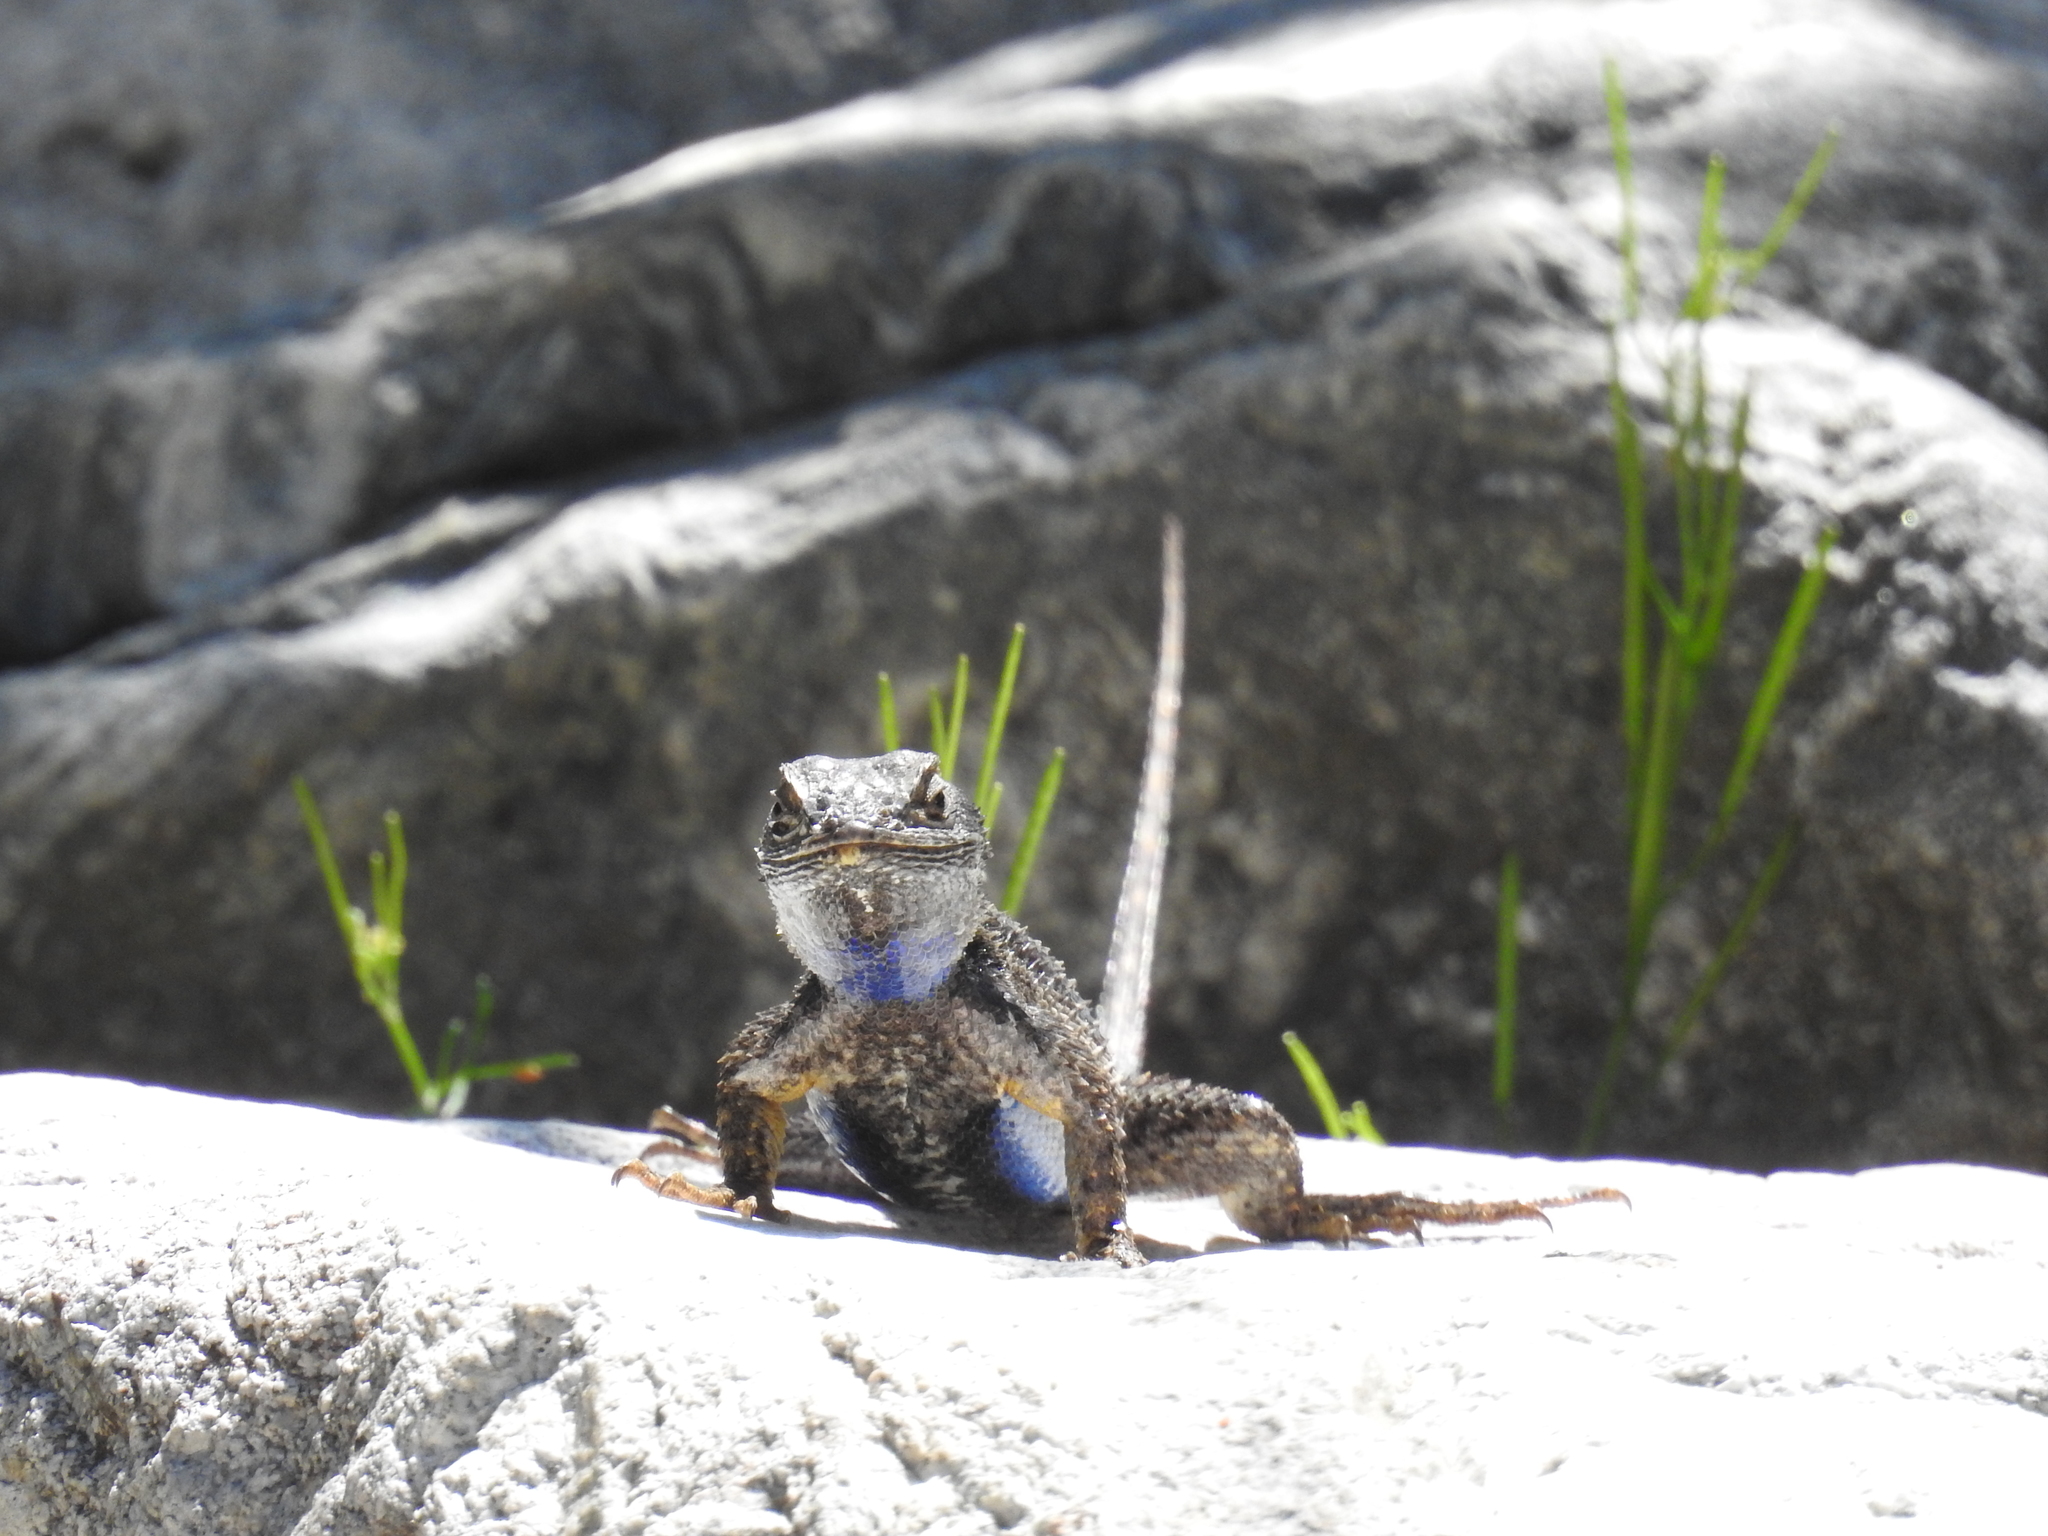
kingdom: Animalia
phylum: Chordata
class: Squamata
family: Phrynosomatidae
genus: Sceloporus
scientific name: Sceloporus occidentalis
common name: Western fence lizard
